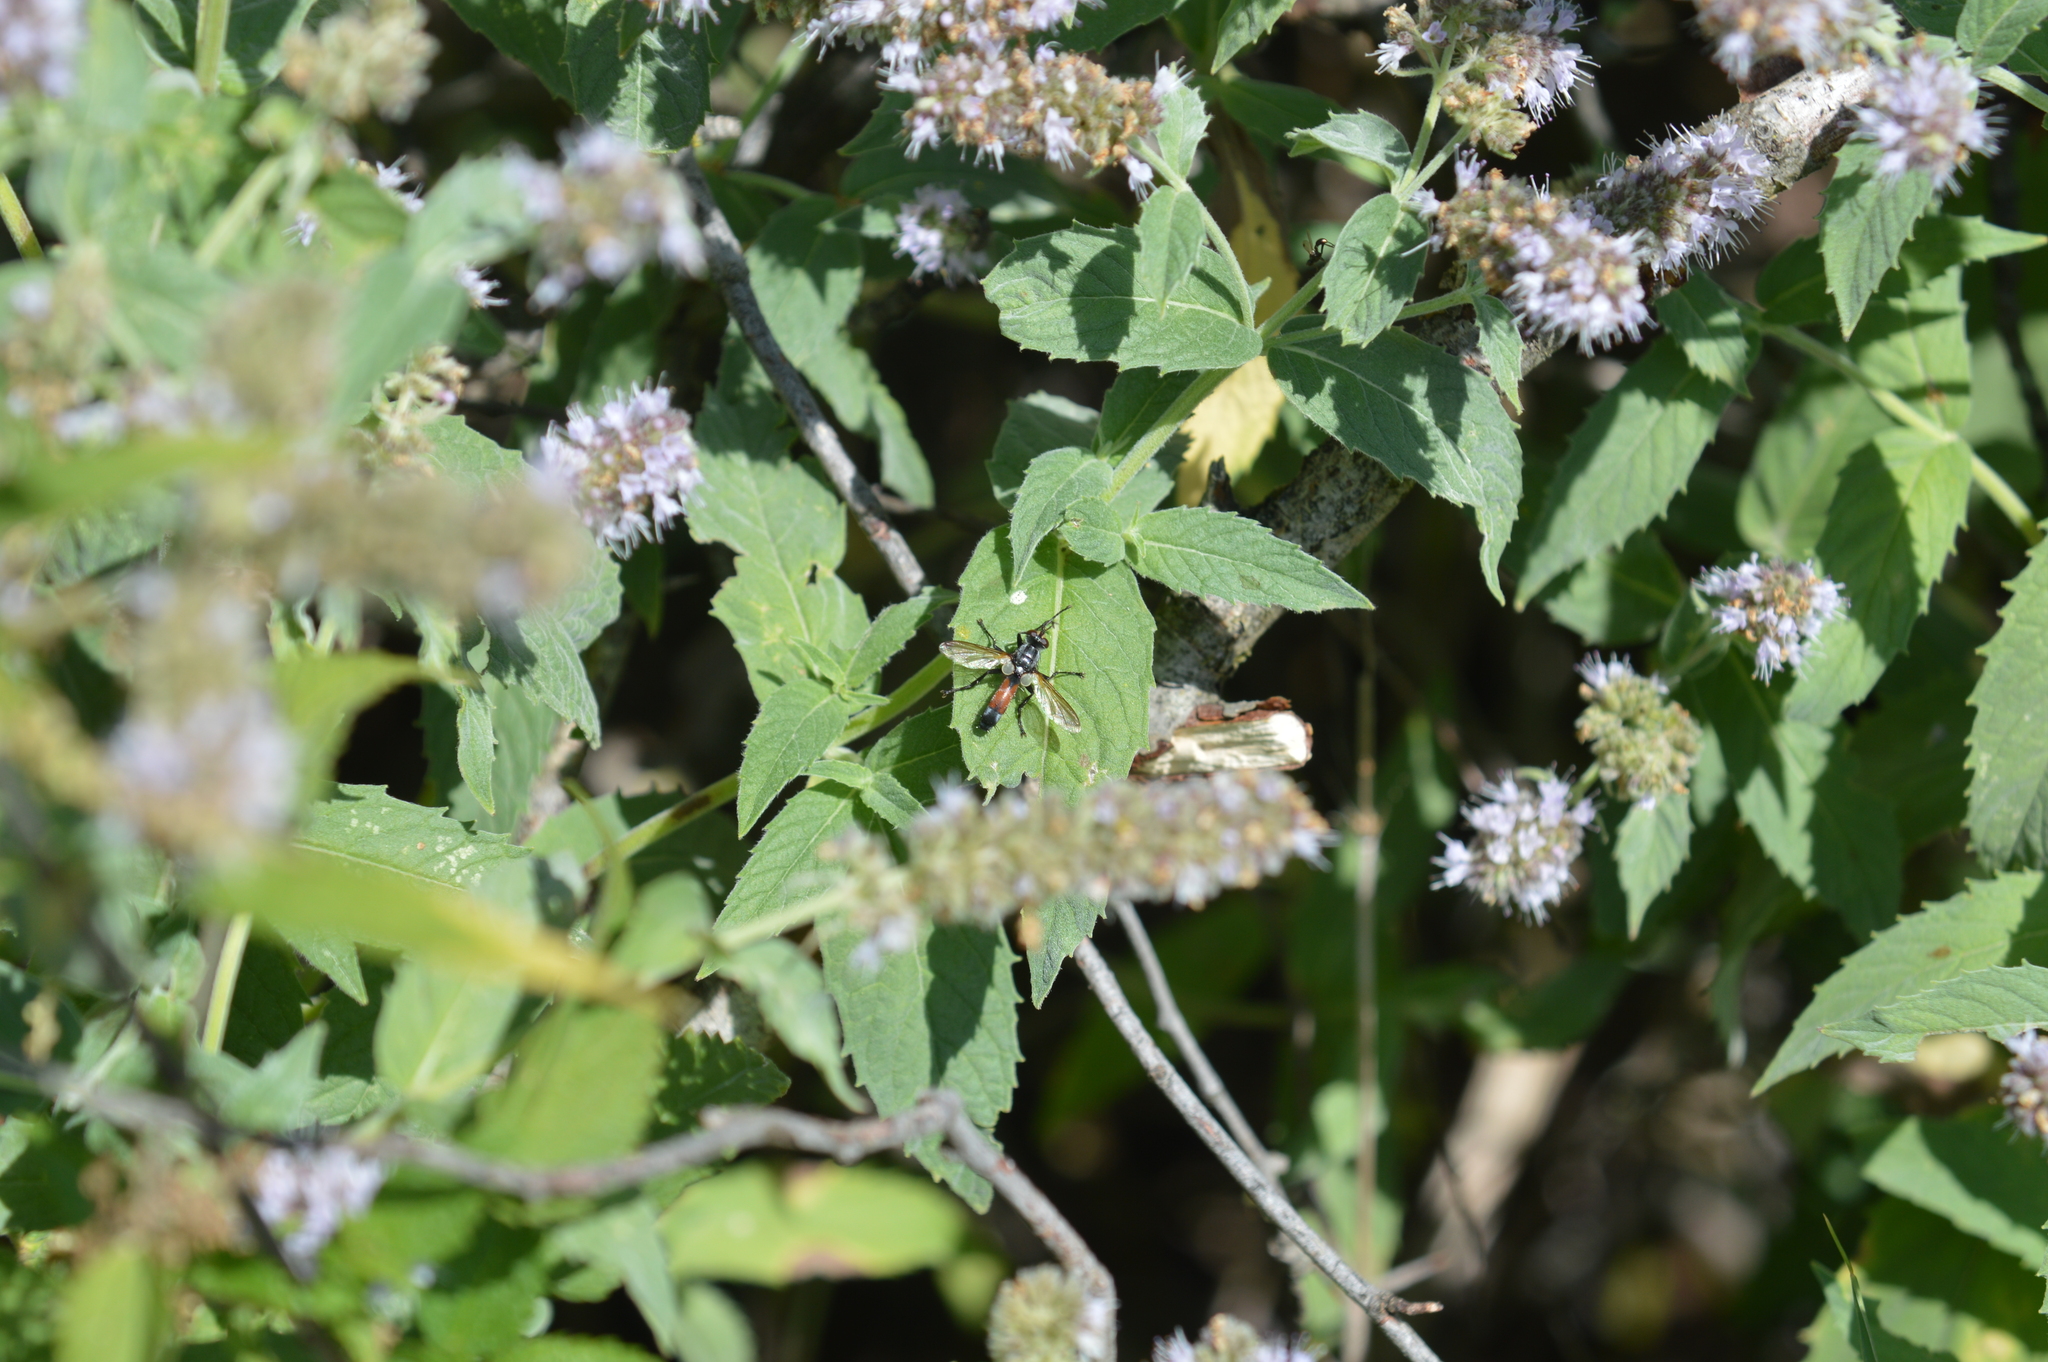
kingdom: Animalia
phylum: Arthropoda
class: Insecta
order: Diptera
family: Tachinidae
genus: Cylindromyia
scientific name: Cylindromyia
